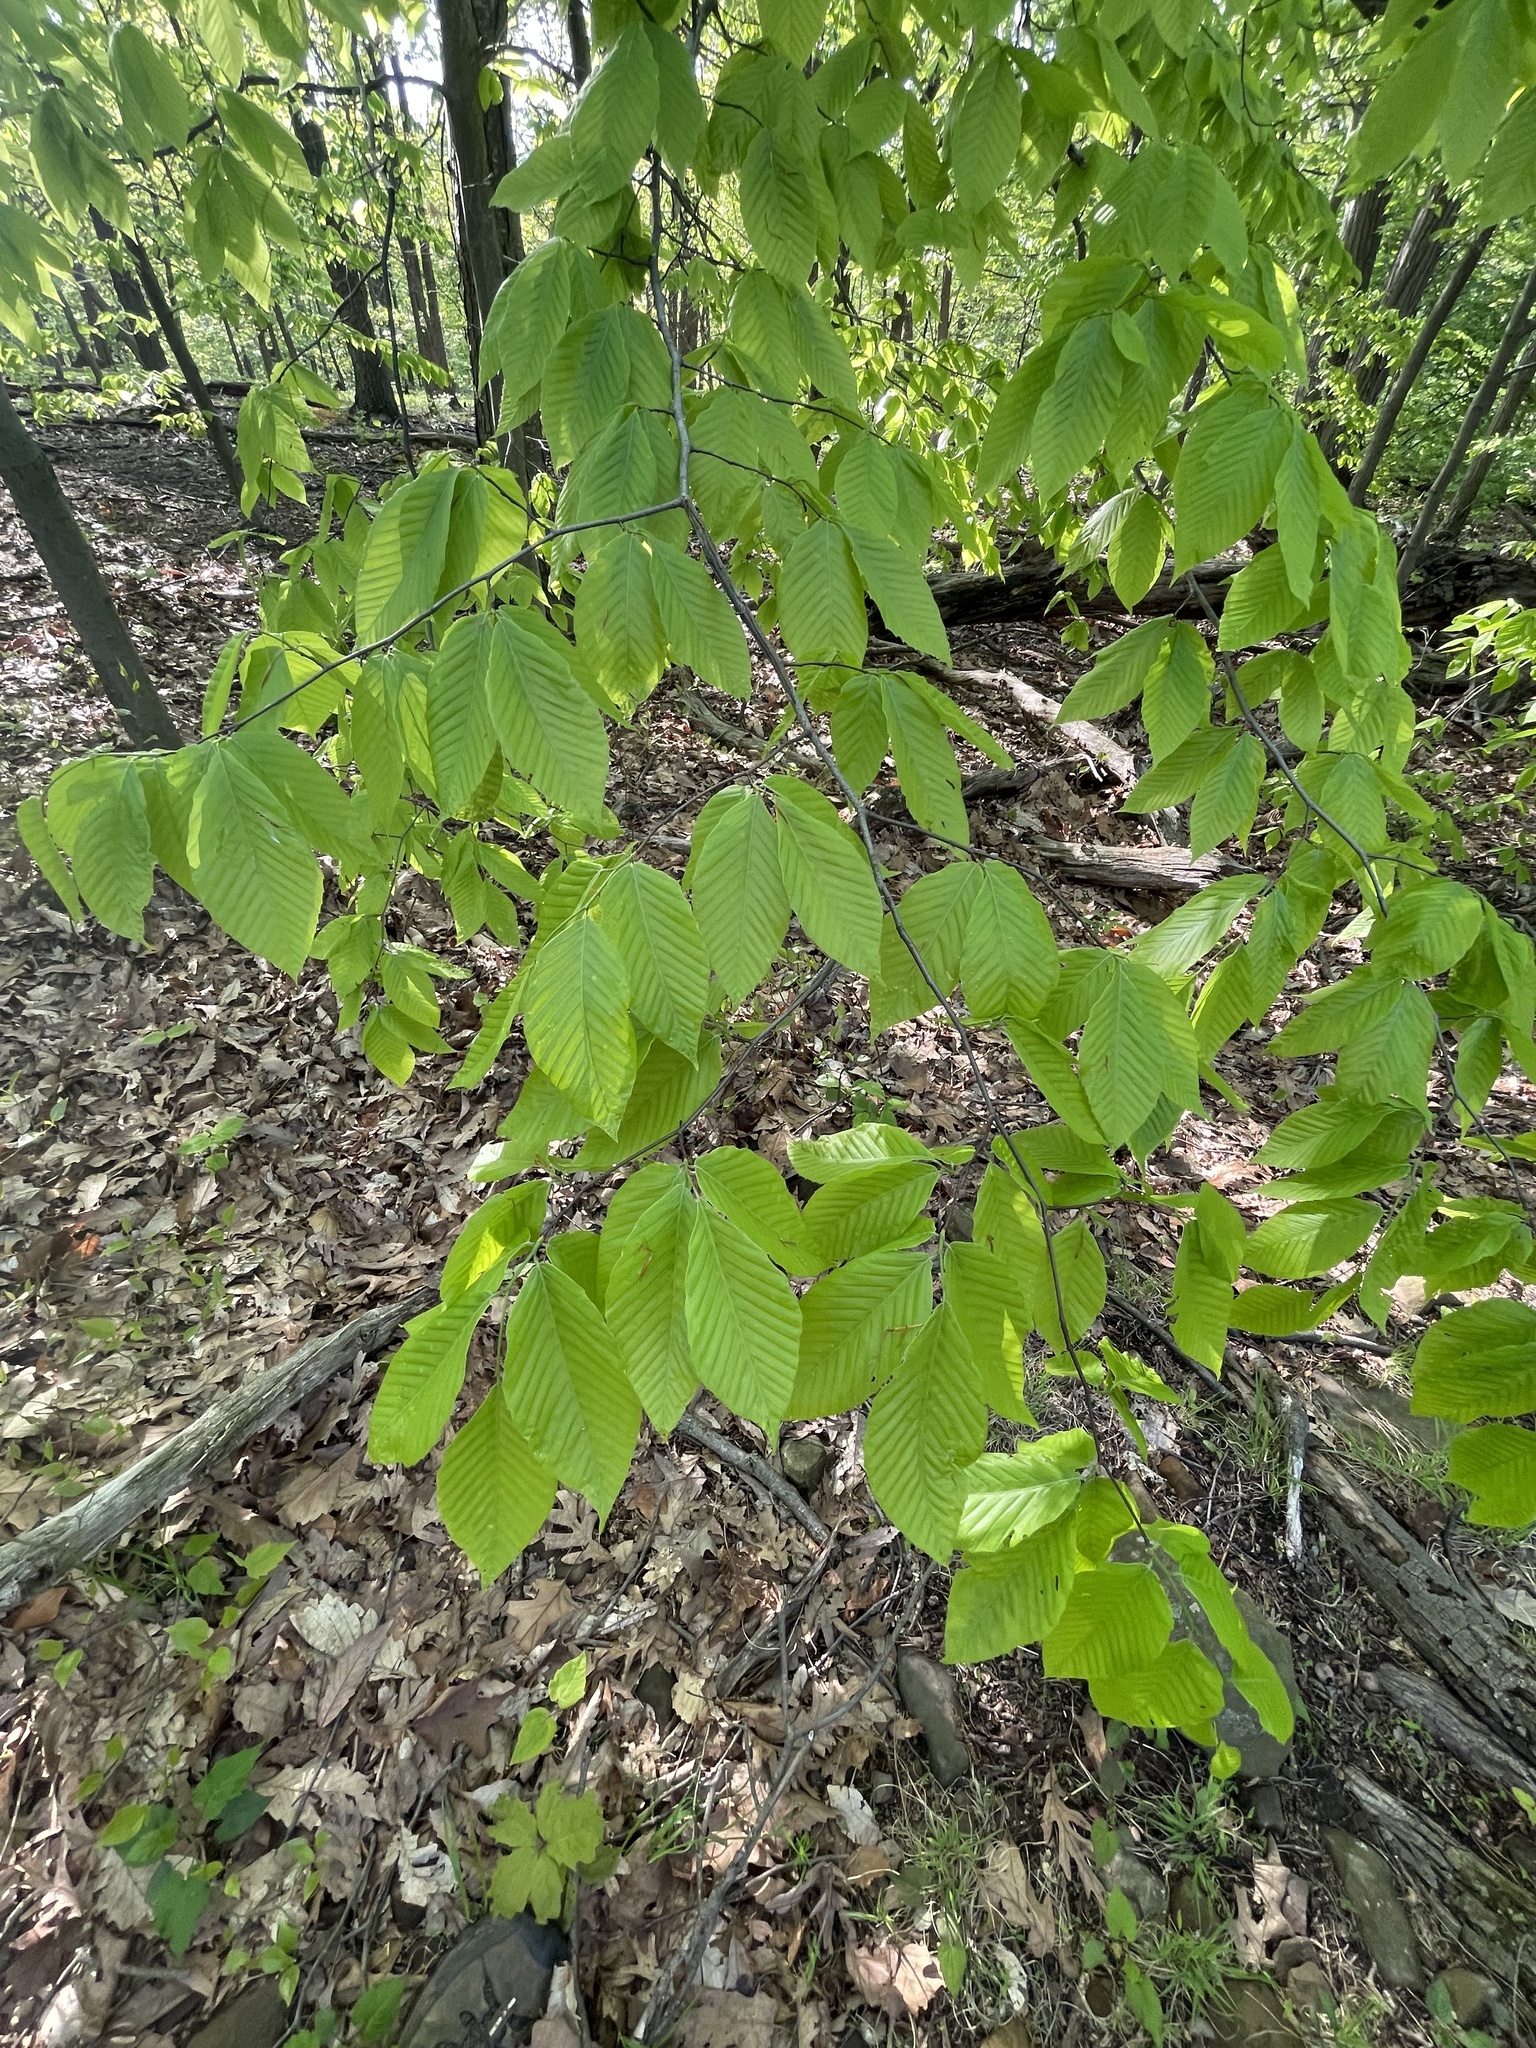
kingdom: Plantae
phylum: Tracheophyta
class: Magnoliopsida
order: Fagales
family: Fagaceae
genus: Fagus
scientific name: Fagus grandifolia
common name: American beech
